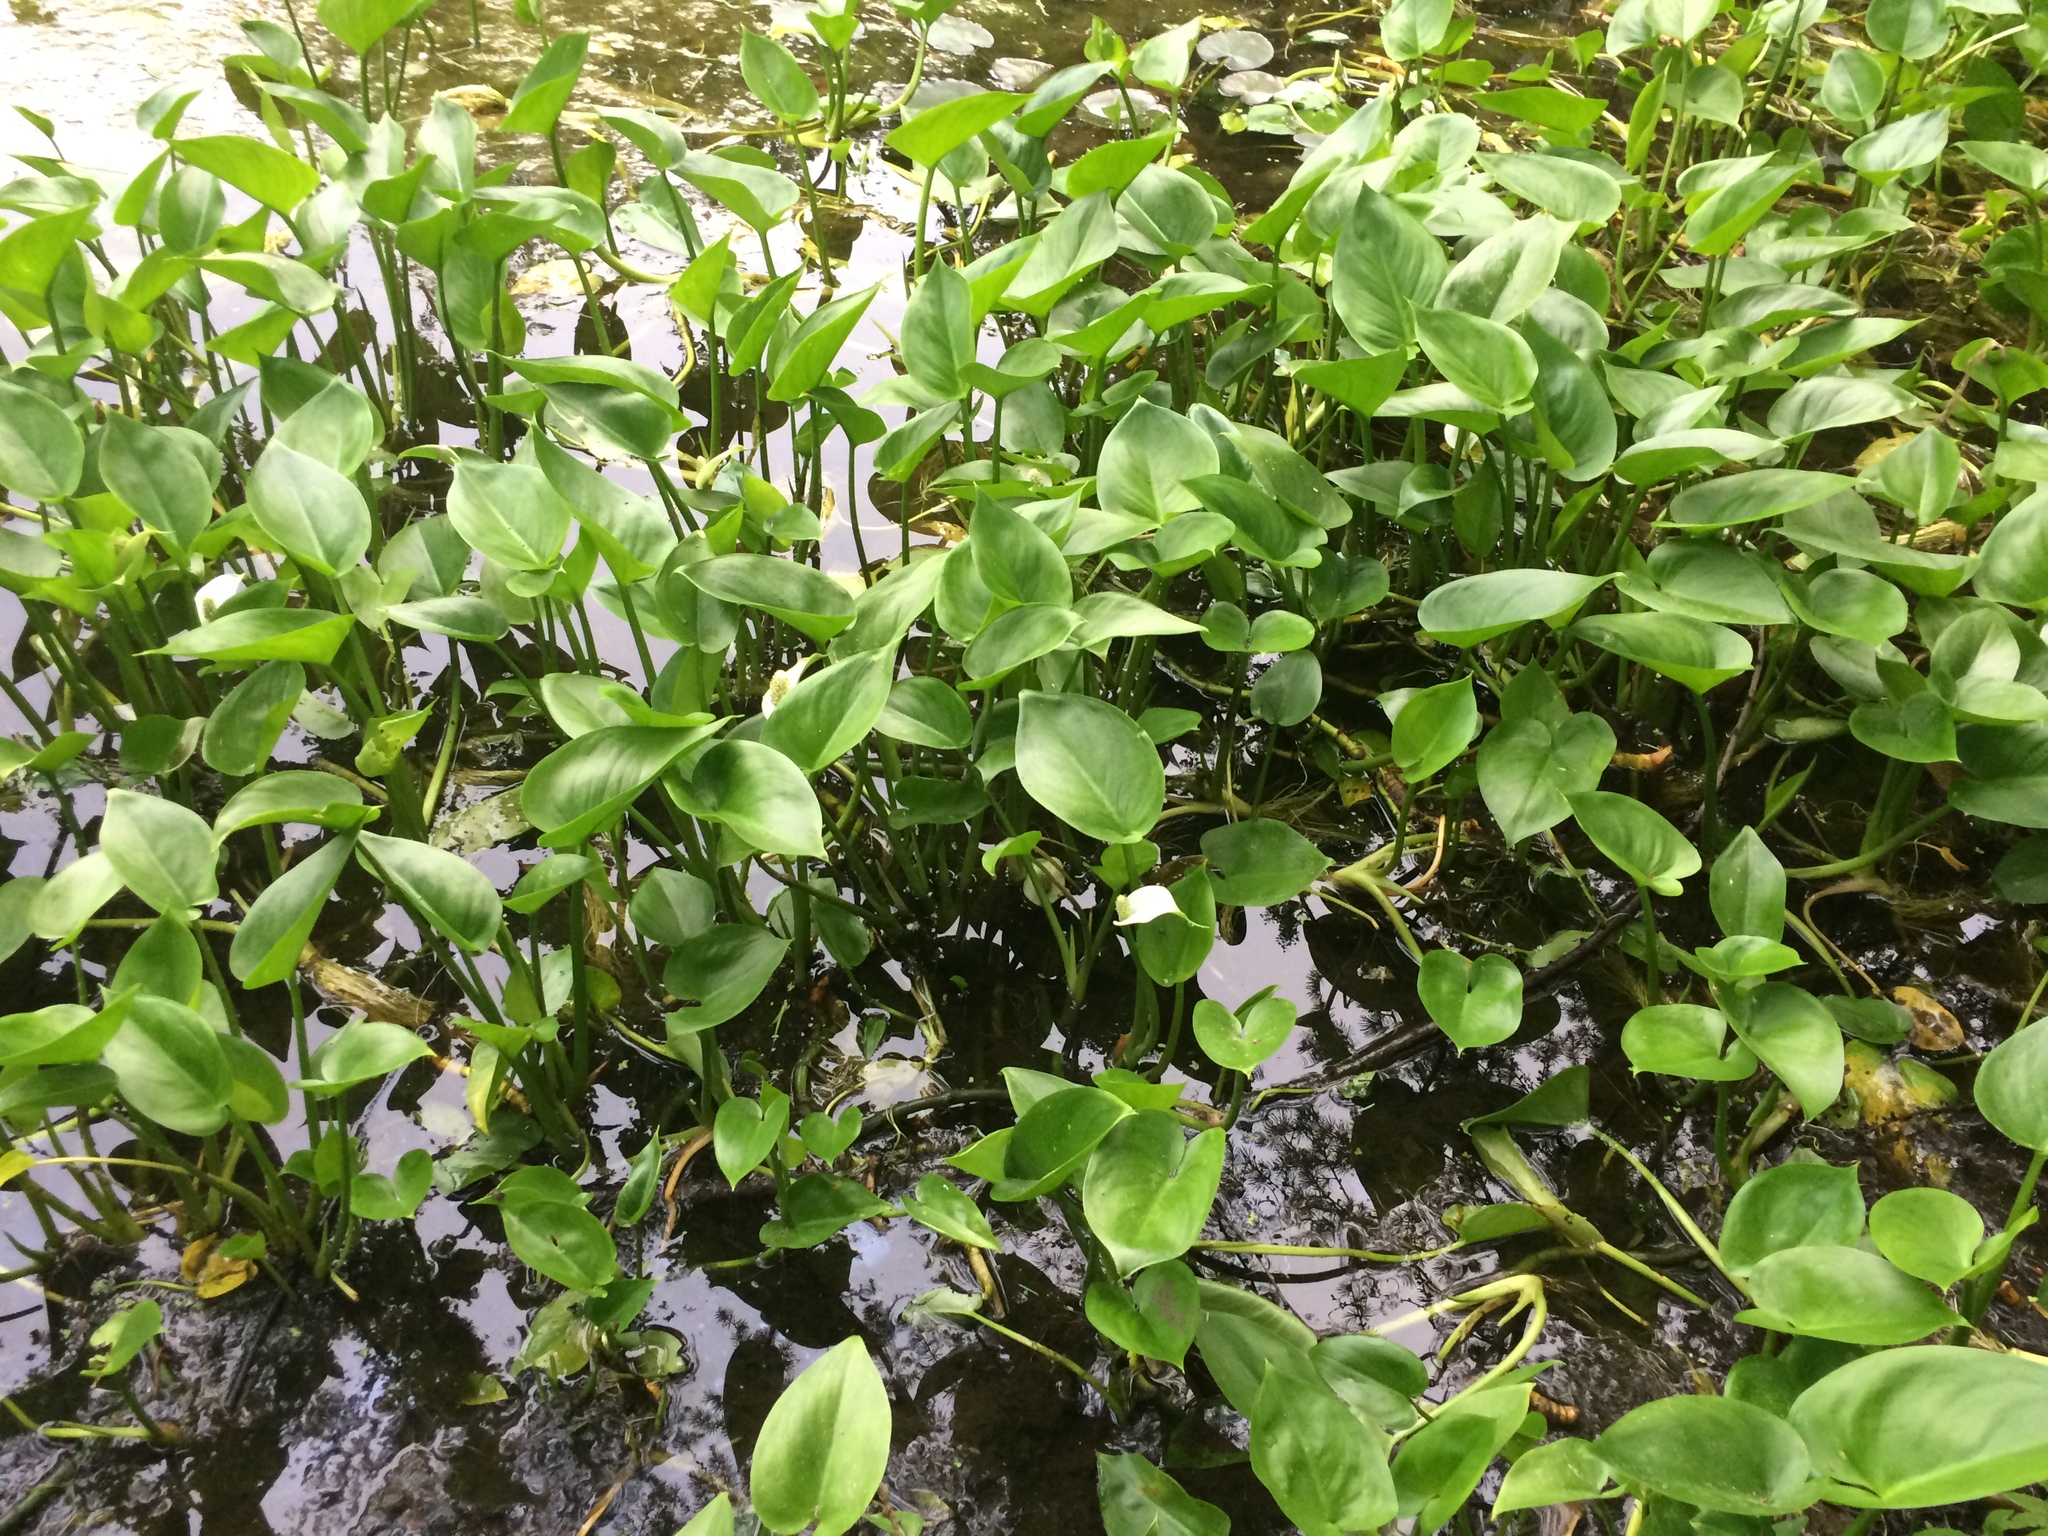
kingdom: Plantae
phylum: Tracheophyta
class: Liliopsida
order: Alismatales
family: Araceae
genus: Calla
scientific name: Calla palustris
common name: Bog arum
